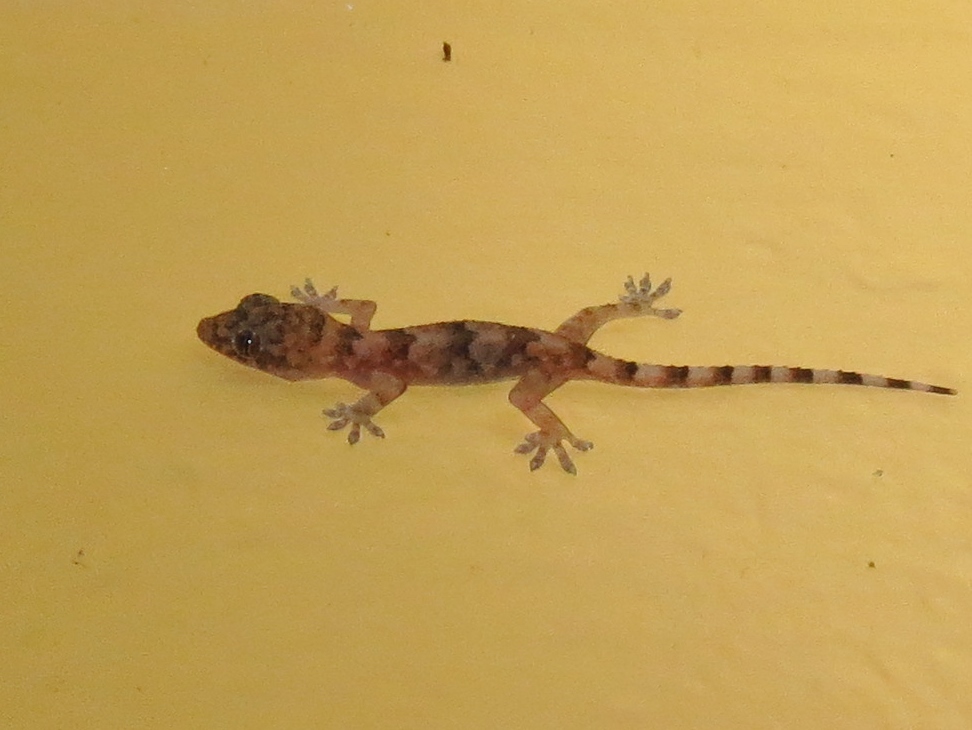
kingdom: Animalia
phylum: Chordata
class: Squamata
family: Gekkonidae
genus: Hemidactylus
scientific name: Hemidactylus mabouia
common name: House gecko
